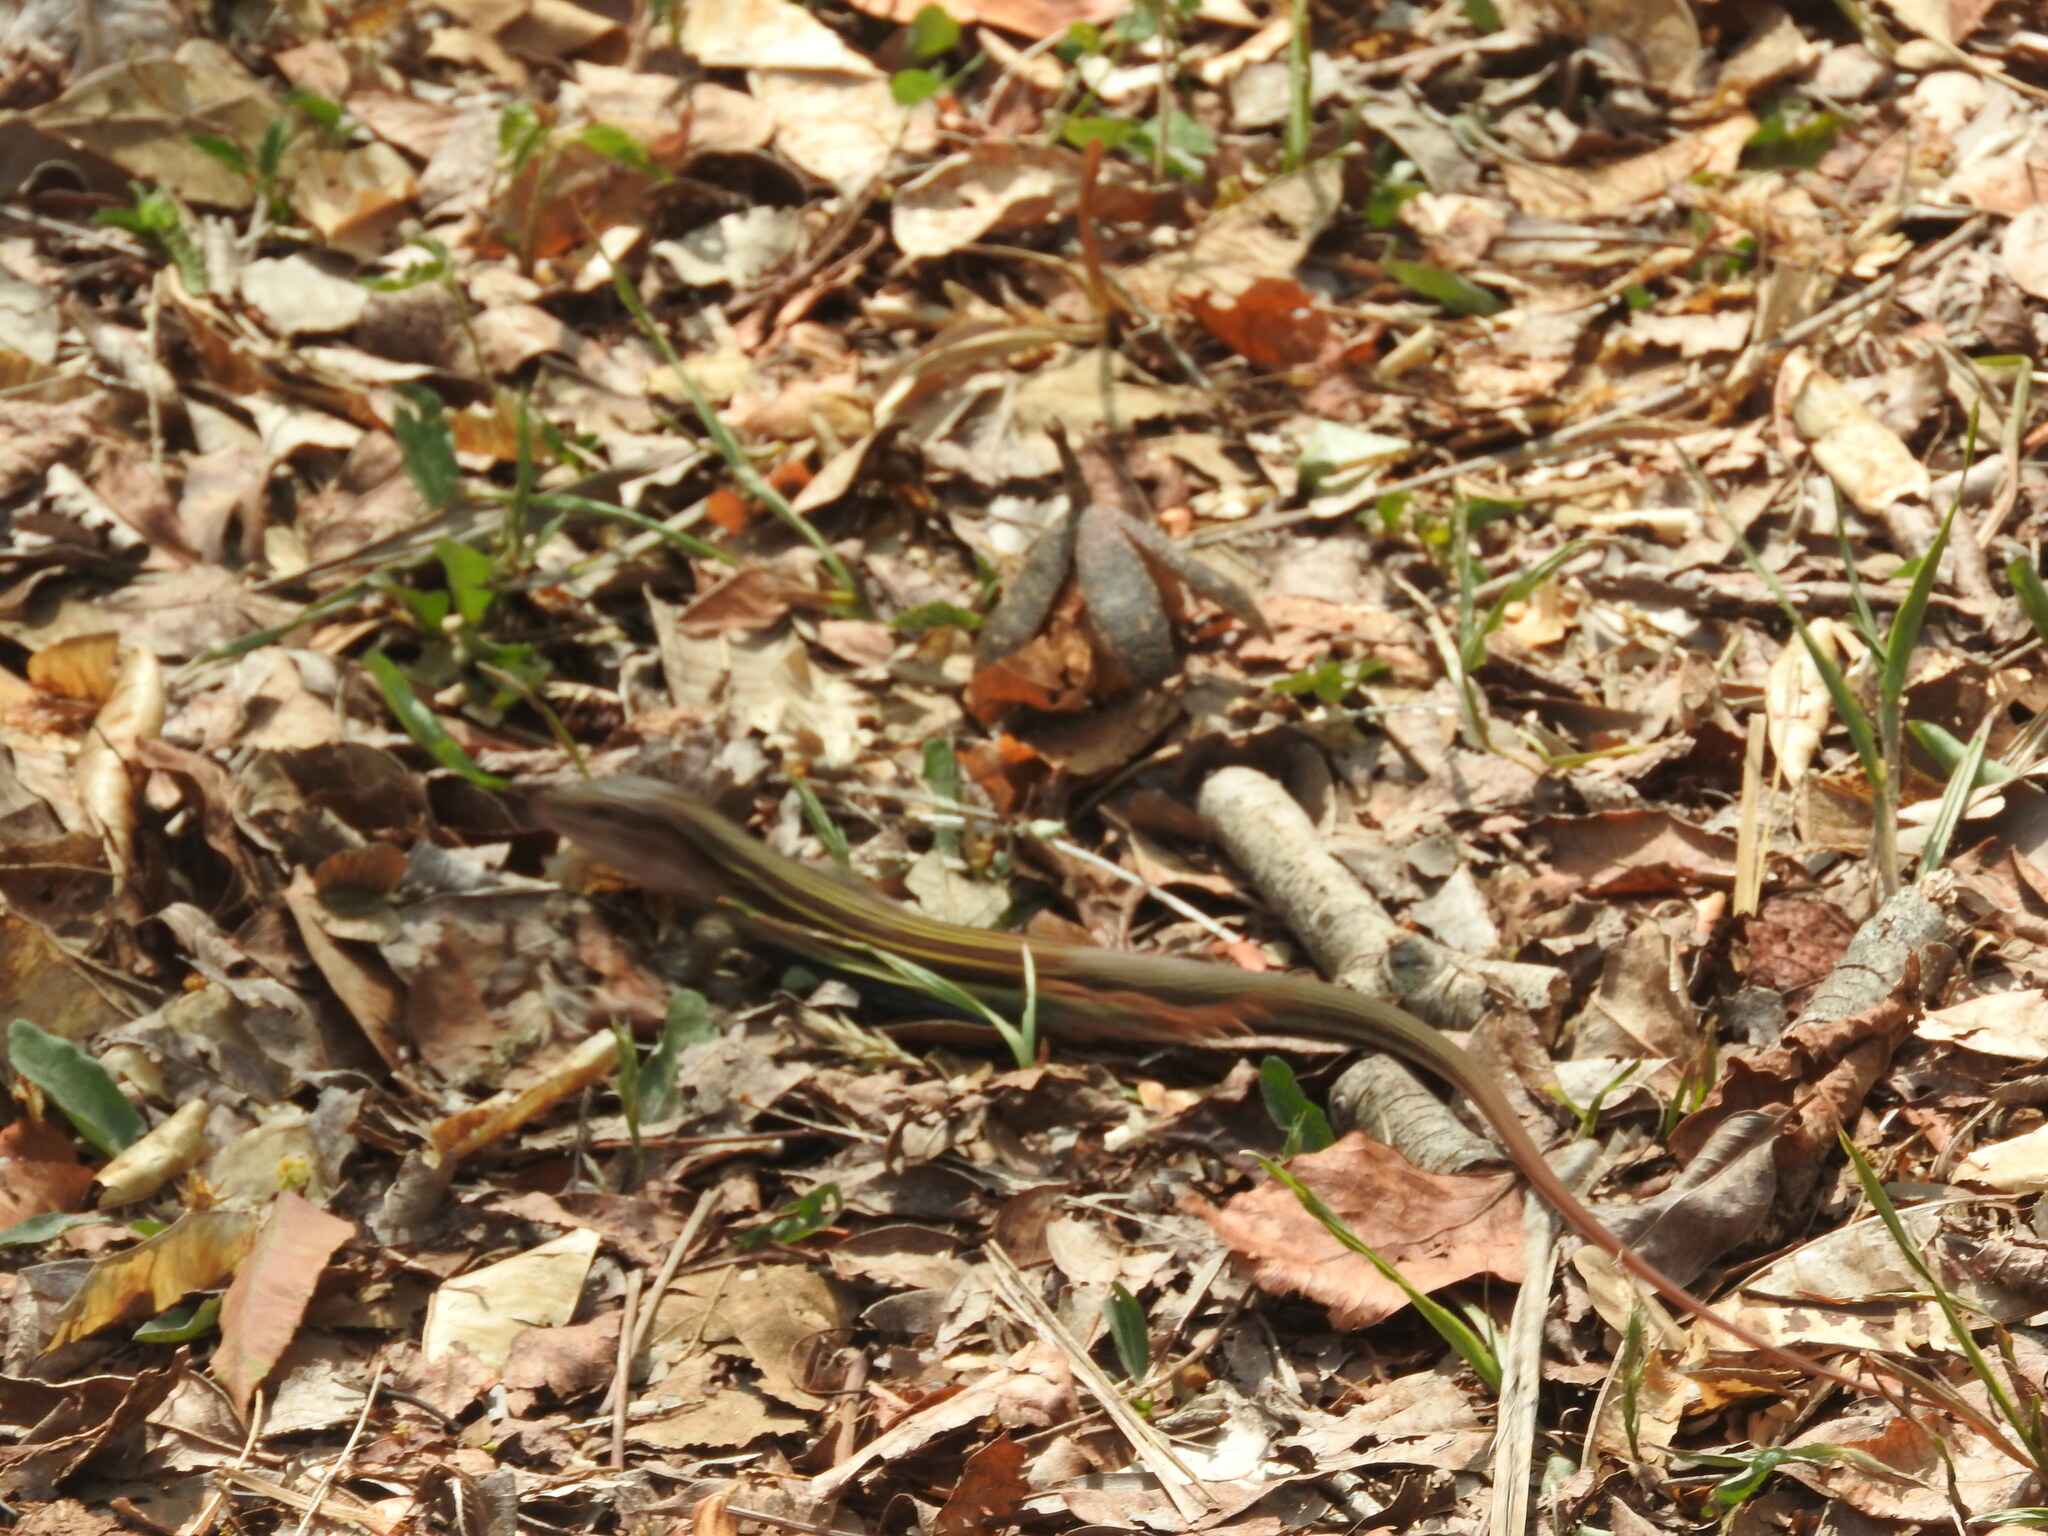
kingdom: Animalia
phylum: Chordata
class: Squamata
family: Teiidae
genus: Aspidoscelis
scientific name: Aspidoscelis angusticeps
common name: Yucatan whiptail
